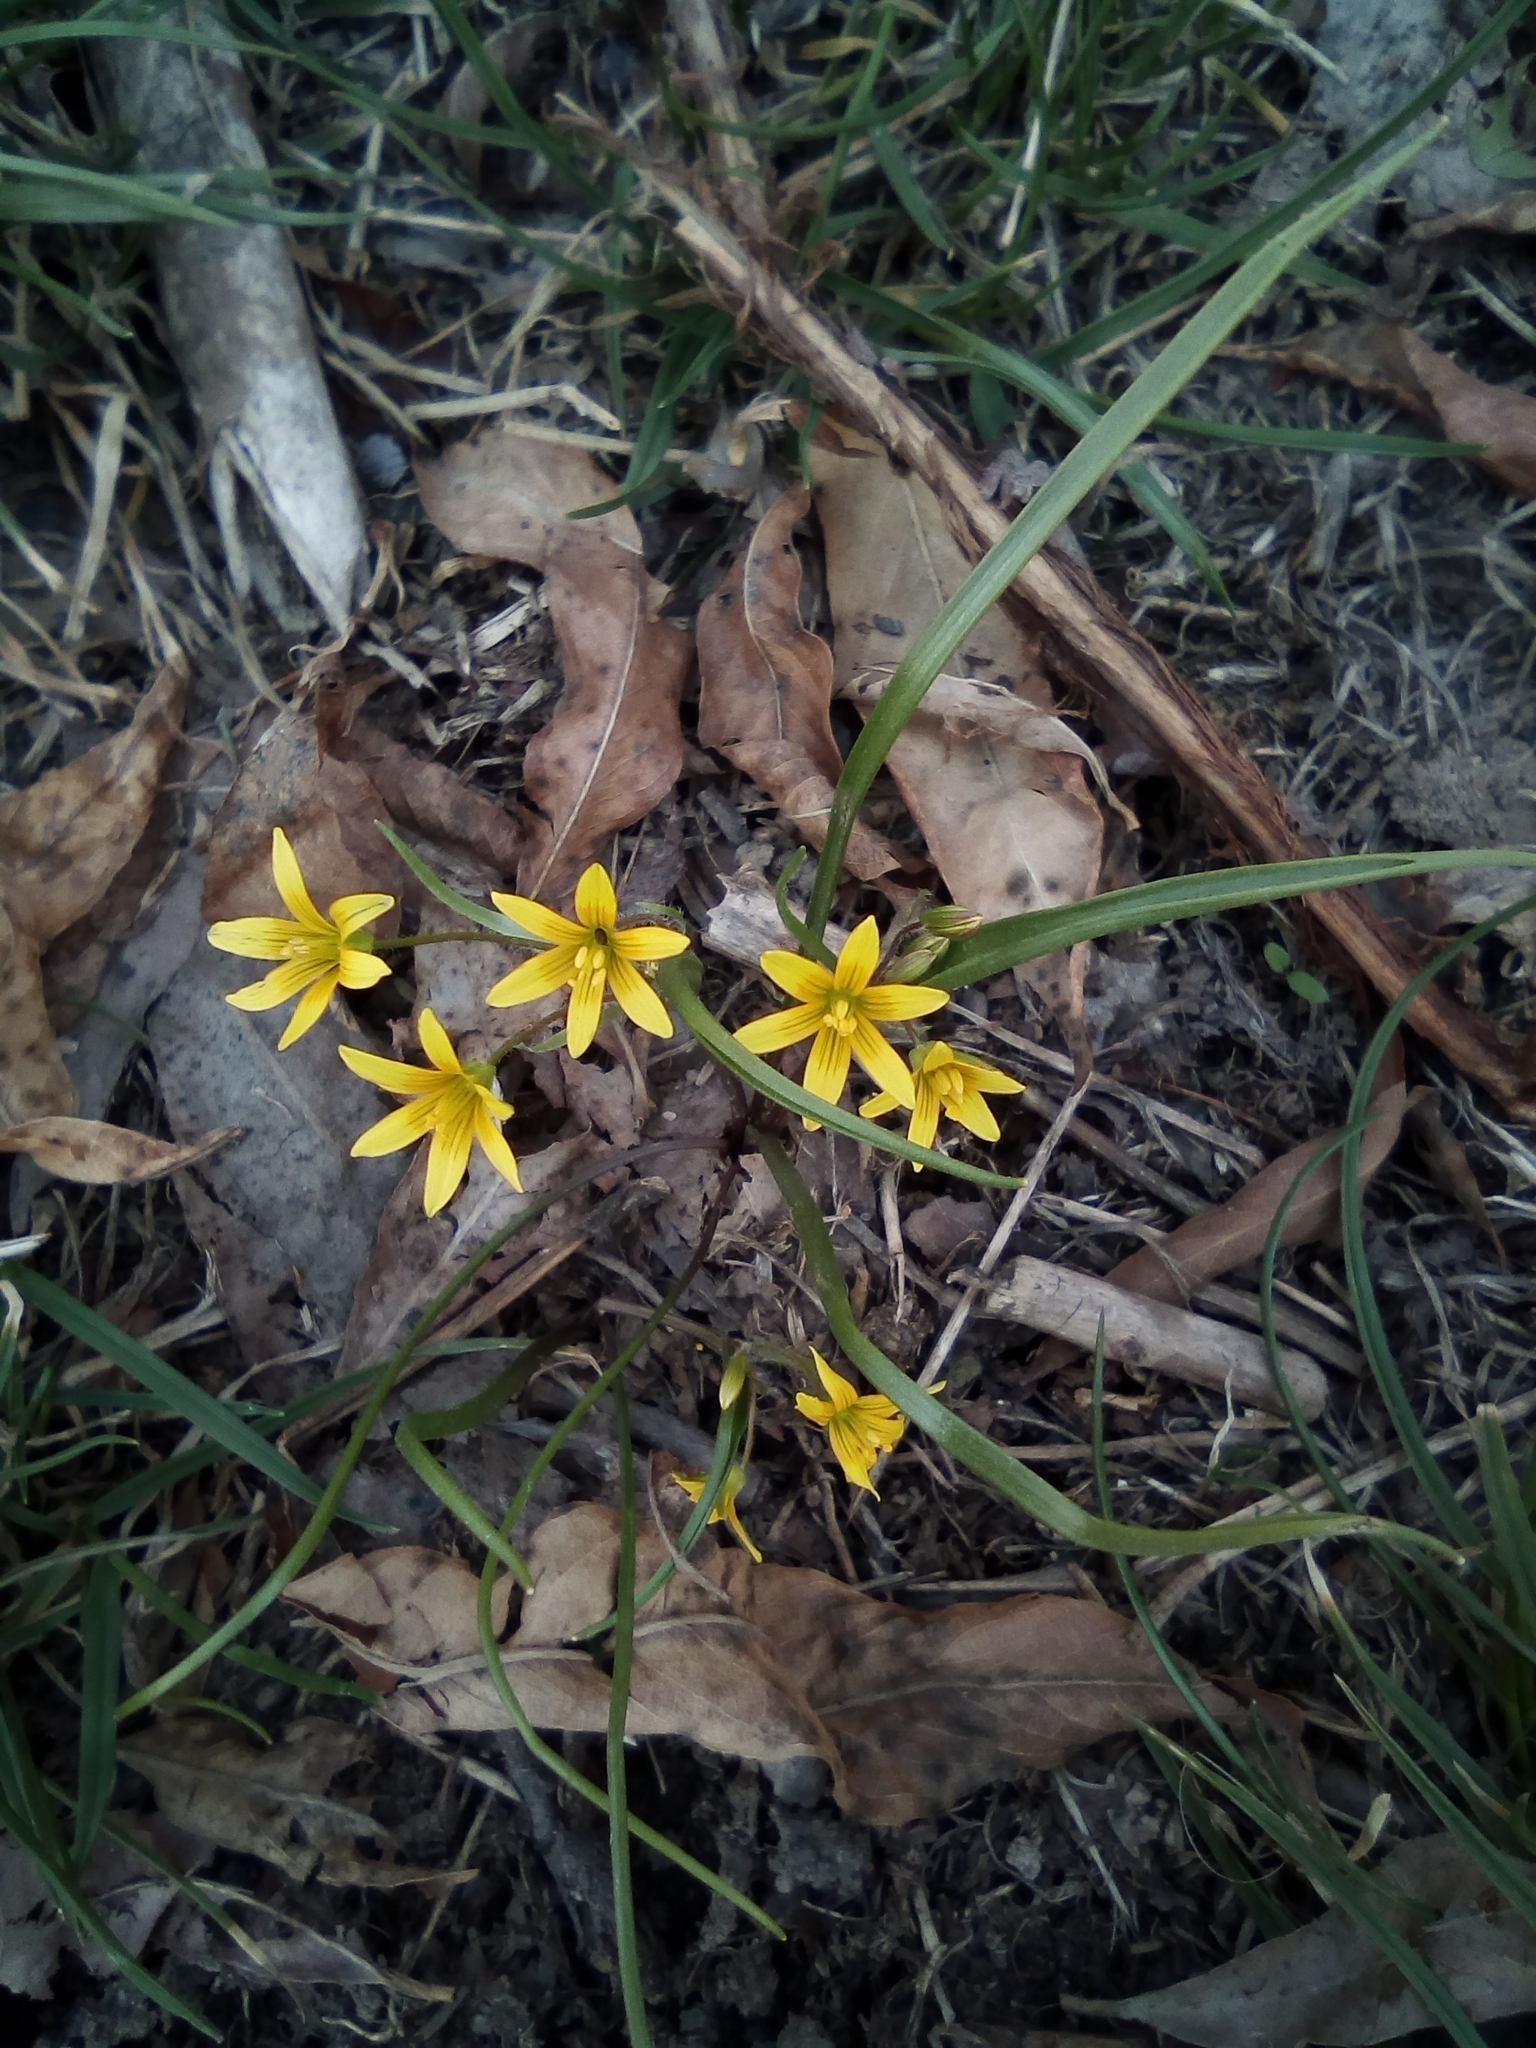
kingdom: Plantae
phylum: Tracheophyta
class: Liliopsida
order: Liliales
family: Liliaceae
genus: Gagea
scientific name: Gagea filiformis
